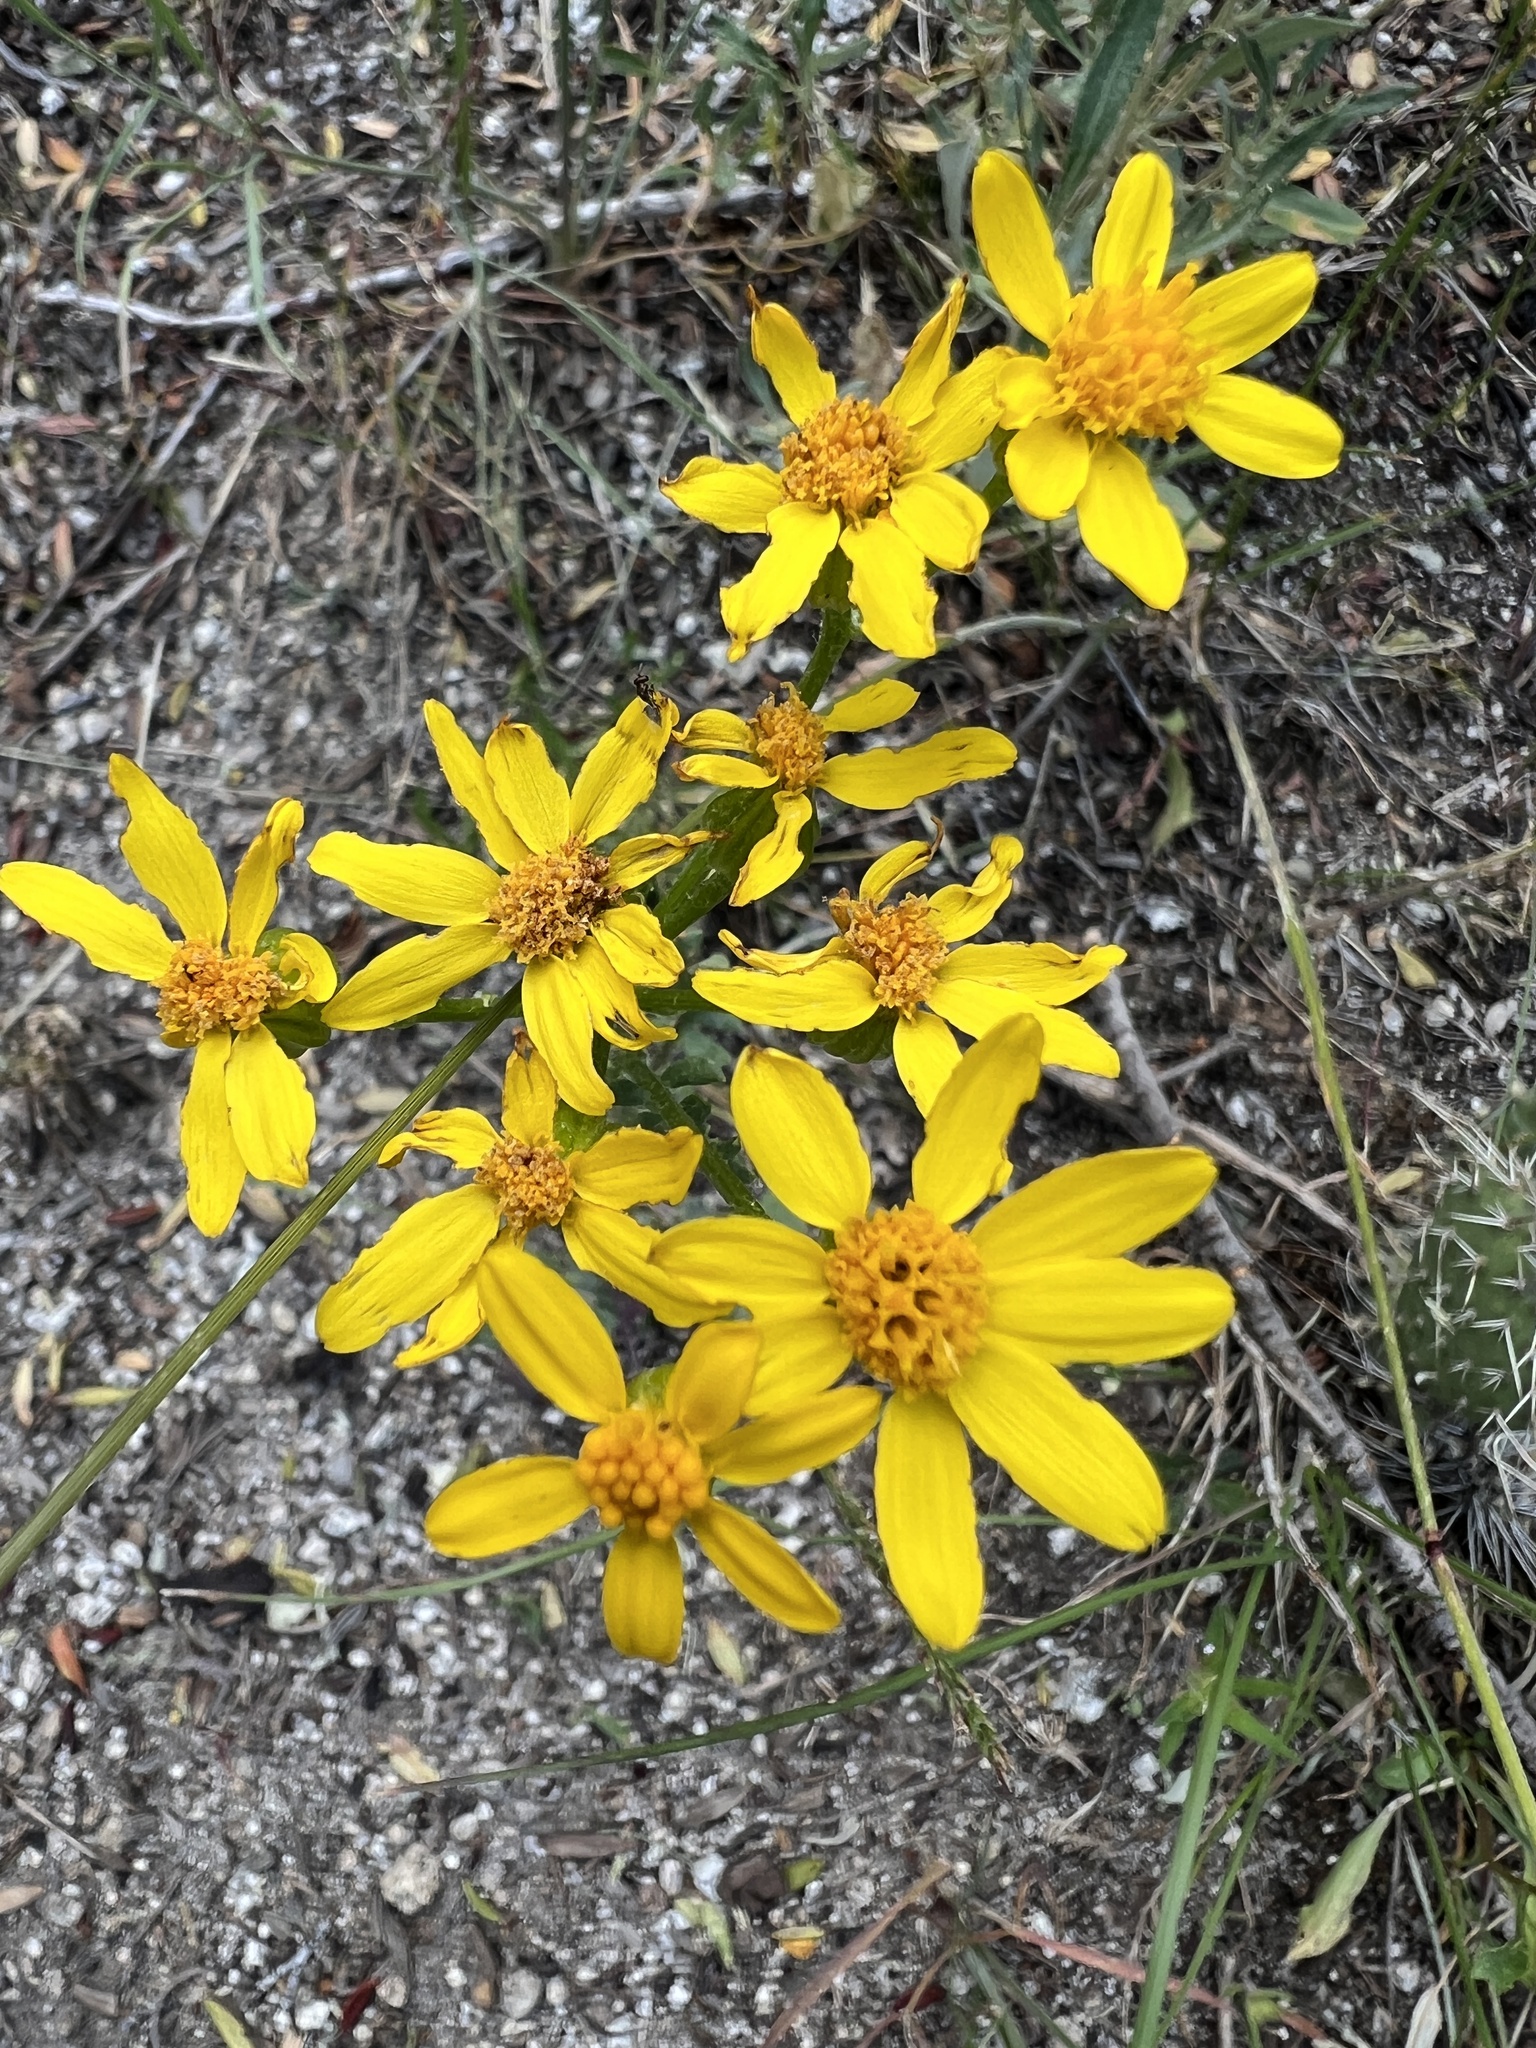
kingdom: Plantae
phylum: Tracheophyta
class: Magnoliopsida
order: Asterales
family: Asteraceae
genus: Packera
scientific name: Packera multilobata
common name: Lobe-leaf groundsel
